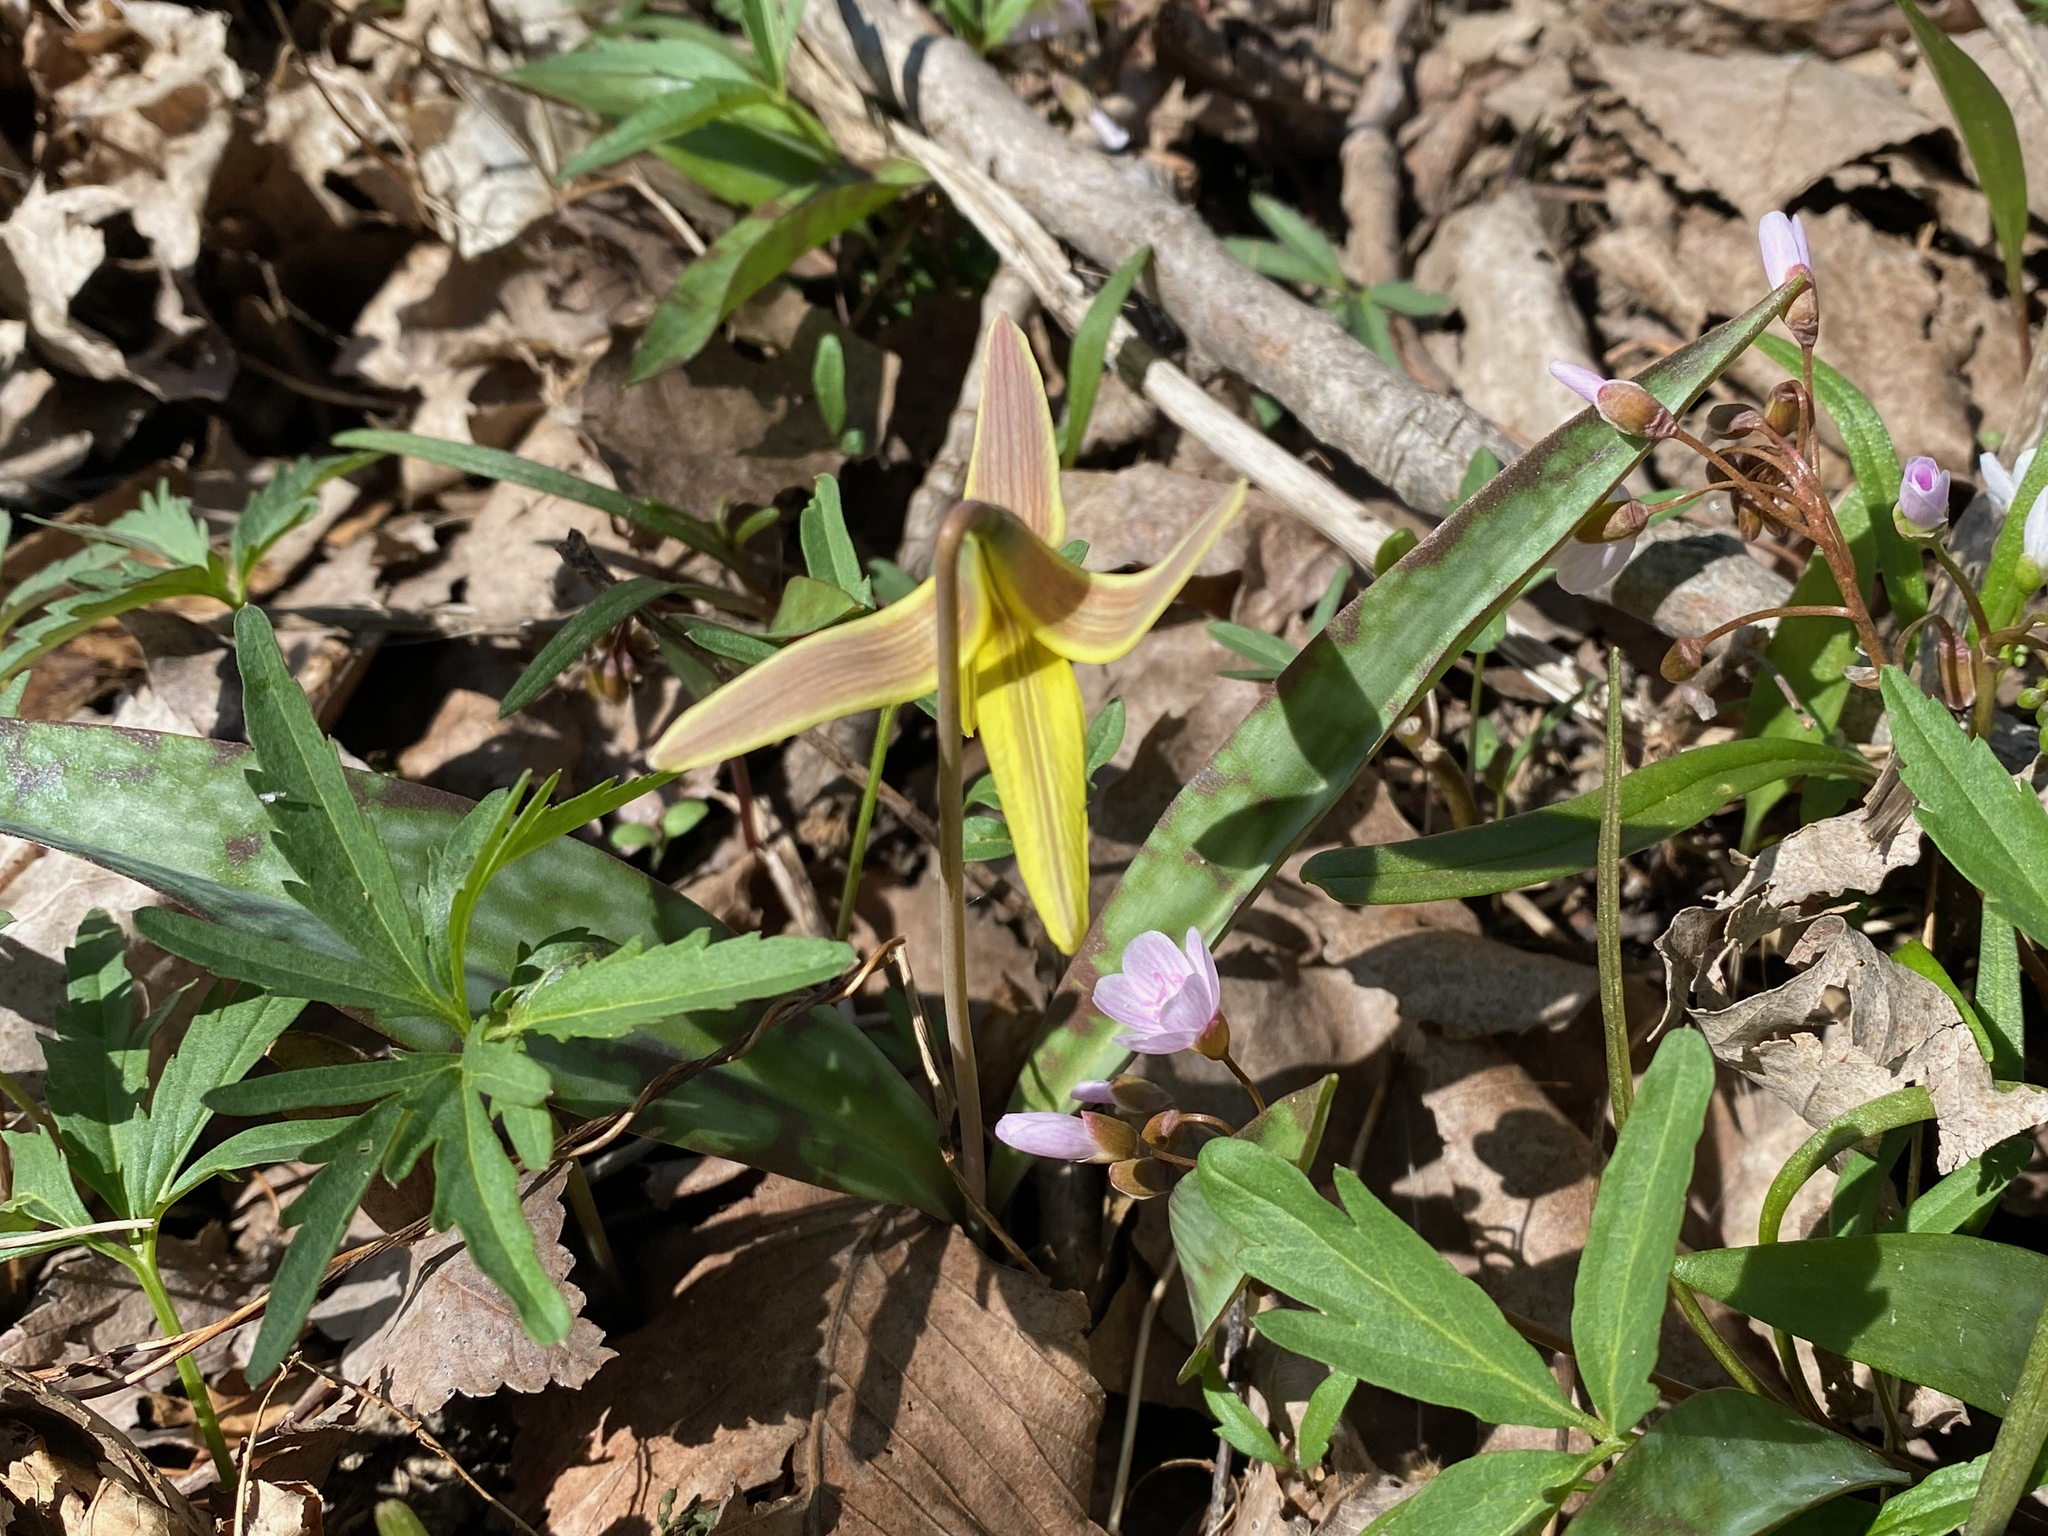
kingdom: Plantae
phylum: Tracheophyta
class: Liliopsida
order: Liliales
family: Liliaceae
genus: Erythronium
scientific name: Erythronium americanum
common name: Yellow adder's-tongue
